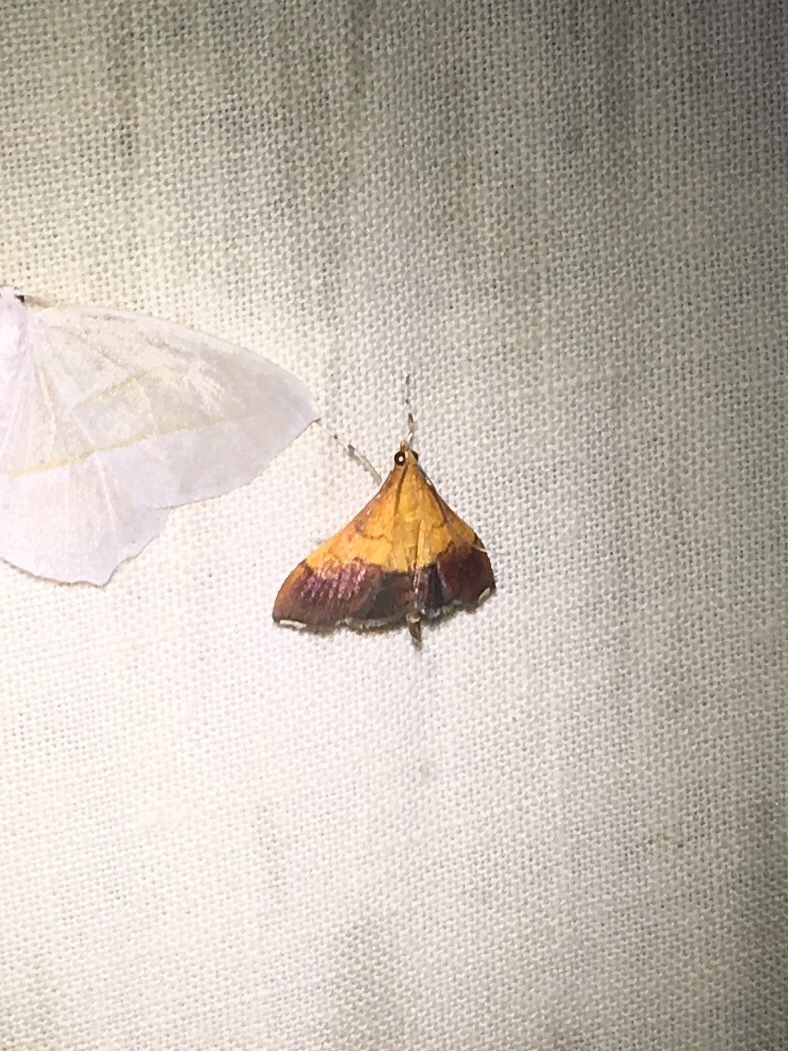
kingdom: Animalia
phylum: Arthropoda
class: Insecta
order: Lepidoptera
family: Crambidae
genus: Pyrausta
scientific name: Pyrausta bicoloralis
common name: Bicolored pyrausta moth
